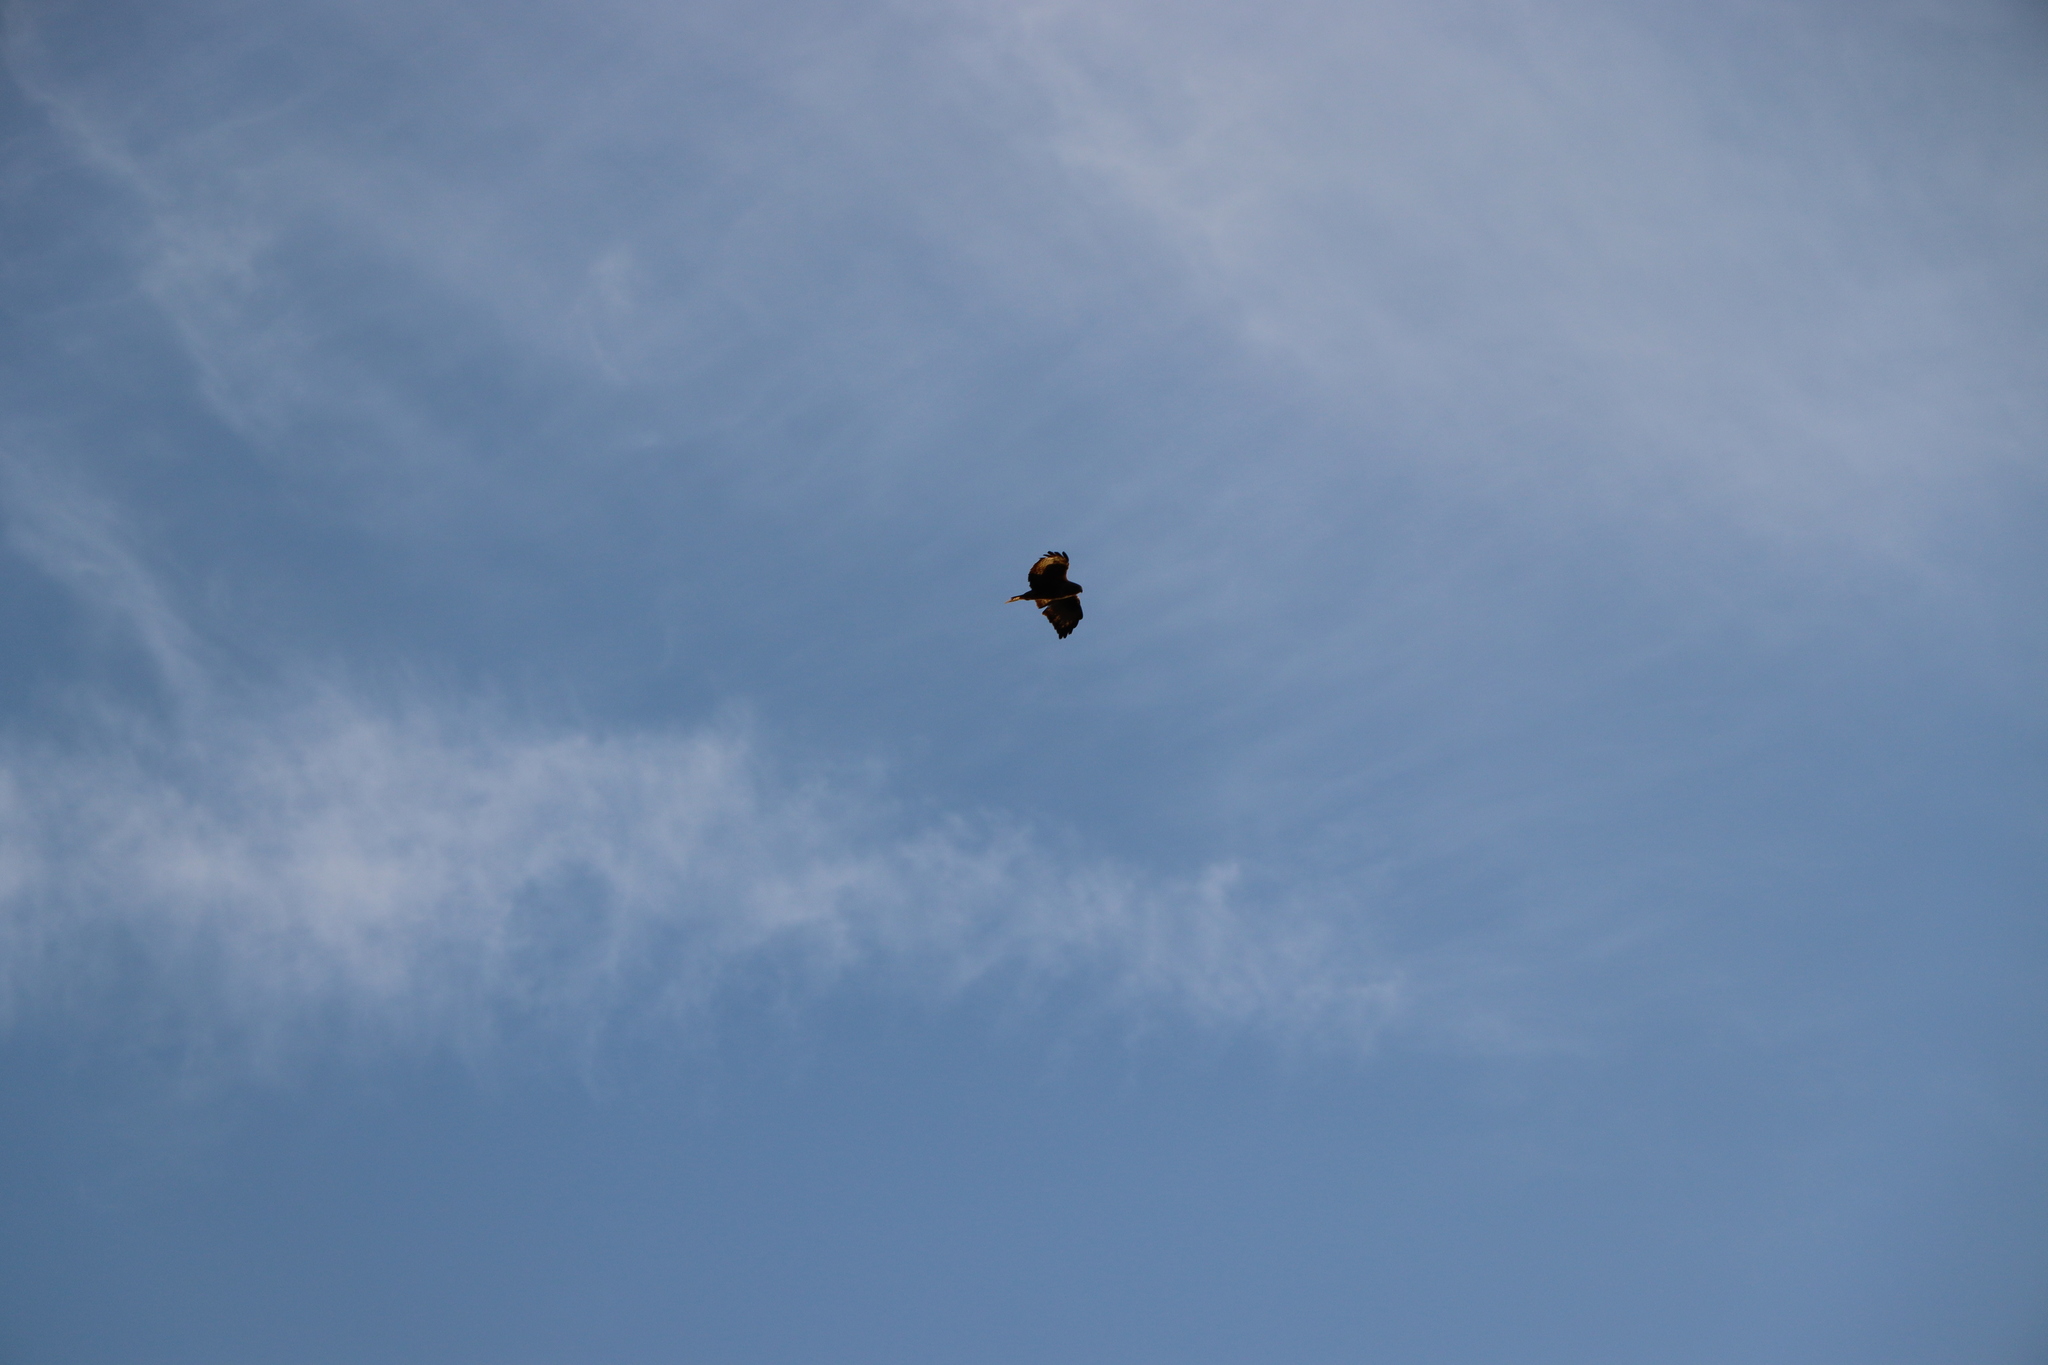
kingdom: Animalia
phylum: Chordata
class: Aves
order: Accipitriformes
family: Accipitridae
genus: Buteo
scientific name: Buteo buteo
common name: Common buzzard
